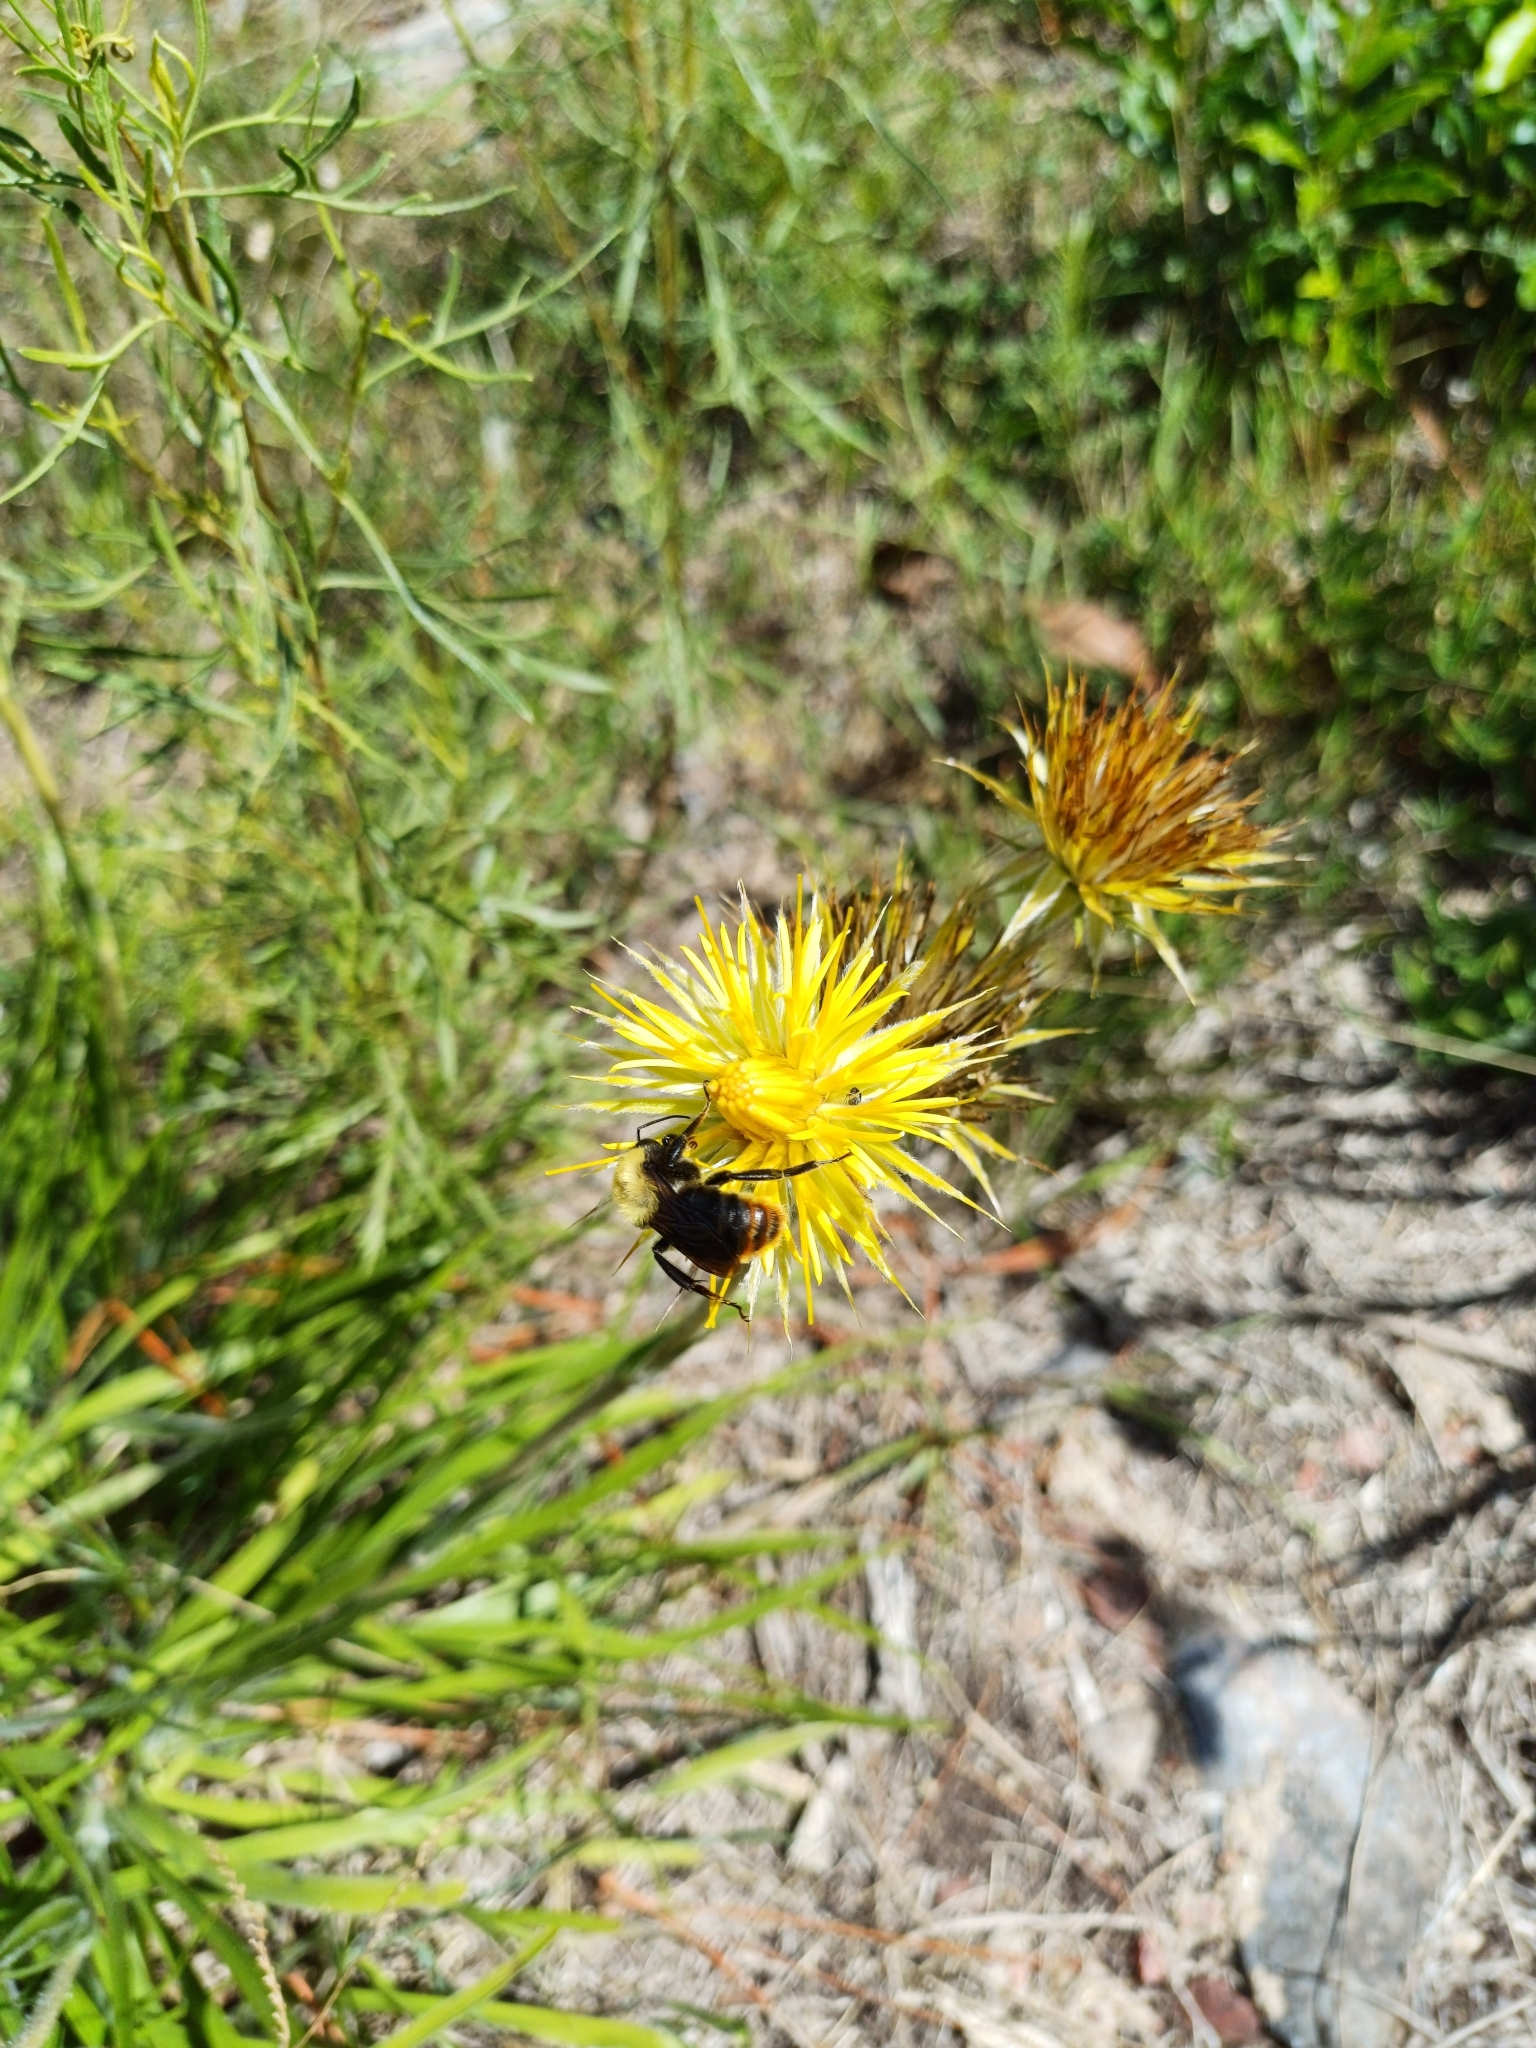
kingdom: Animalia
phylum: Arthropoda
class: Insecta
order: Hymenoptera
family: Apidae
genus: Bombus
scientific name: Bombus bellicosus
